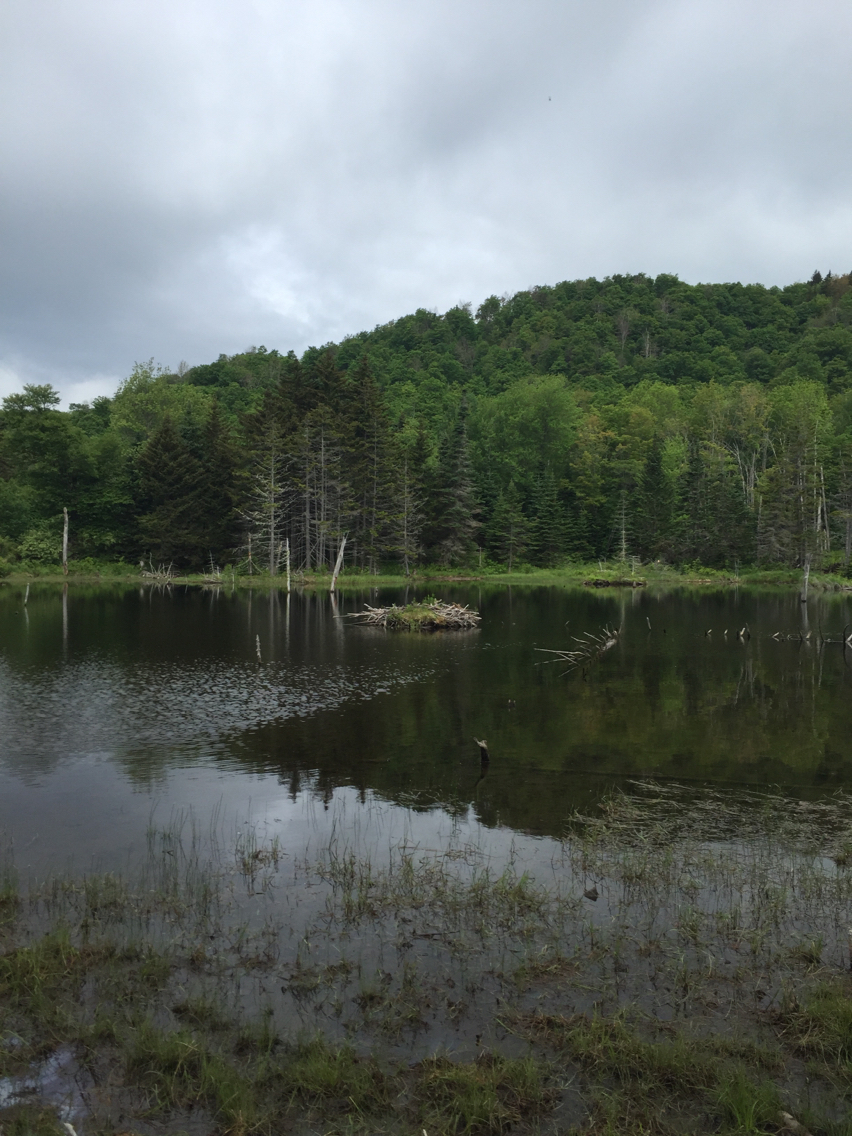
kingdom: Animalia
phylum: Chordata
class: Mammalia
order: Rodentia
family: Castoridae
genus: Castor
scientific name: Castor canadensis
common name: American beaver
